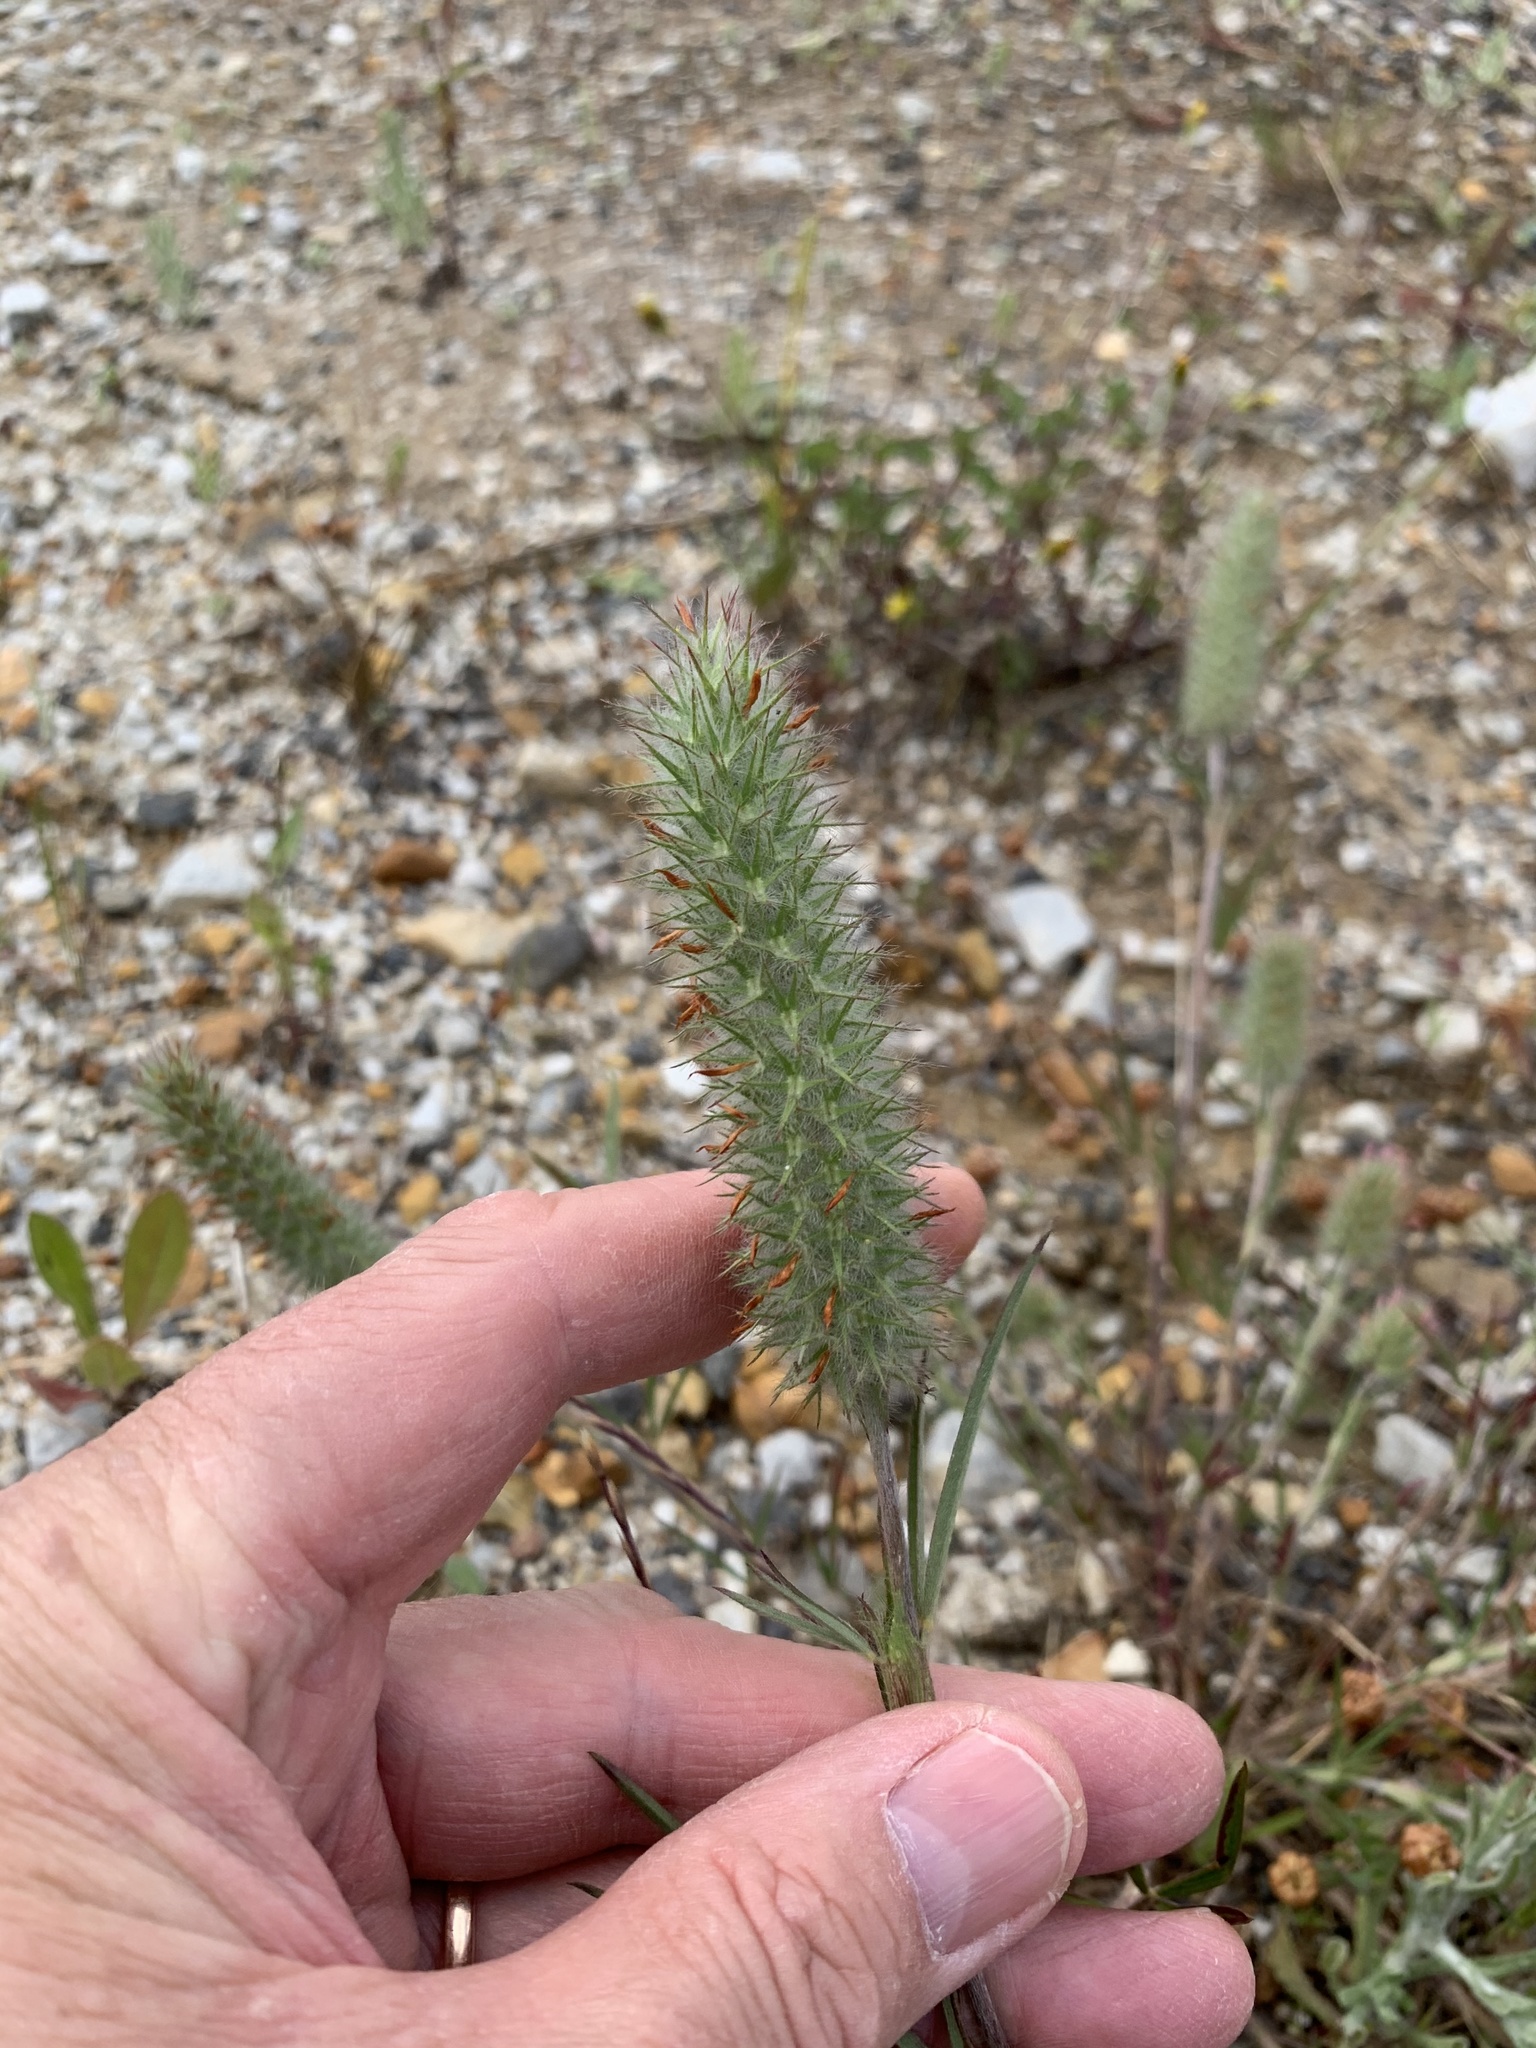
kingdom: Plantae
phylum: Tracheophyta
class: Magnoliopsida
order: Fabales
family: Fabaceae
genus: Trifolium
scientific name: Trifolium angustifolium
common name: Narrow clover
